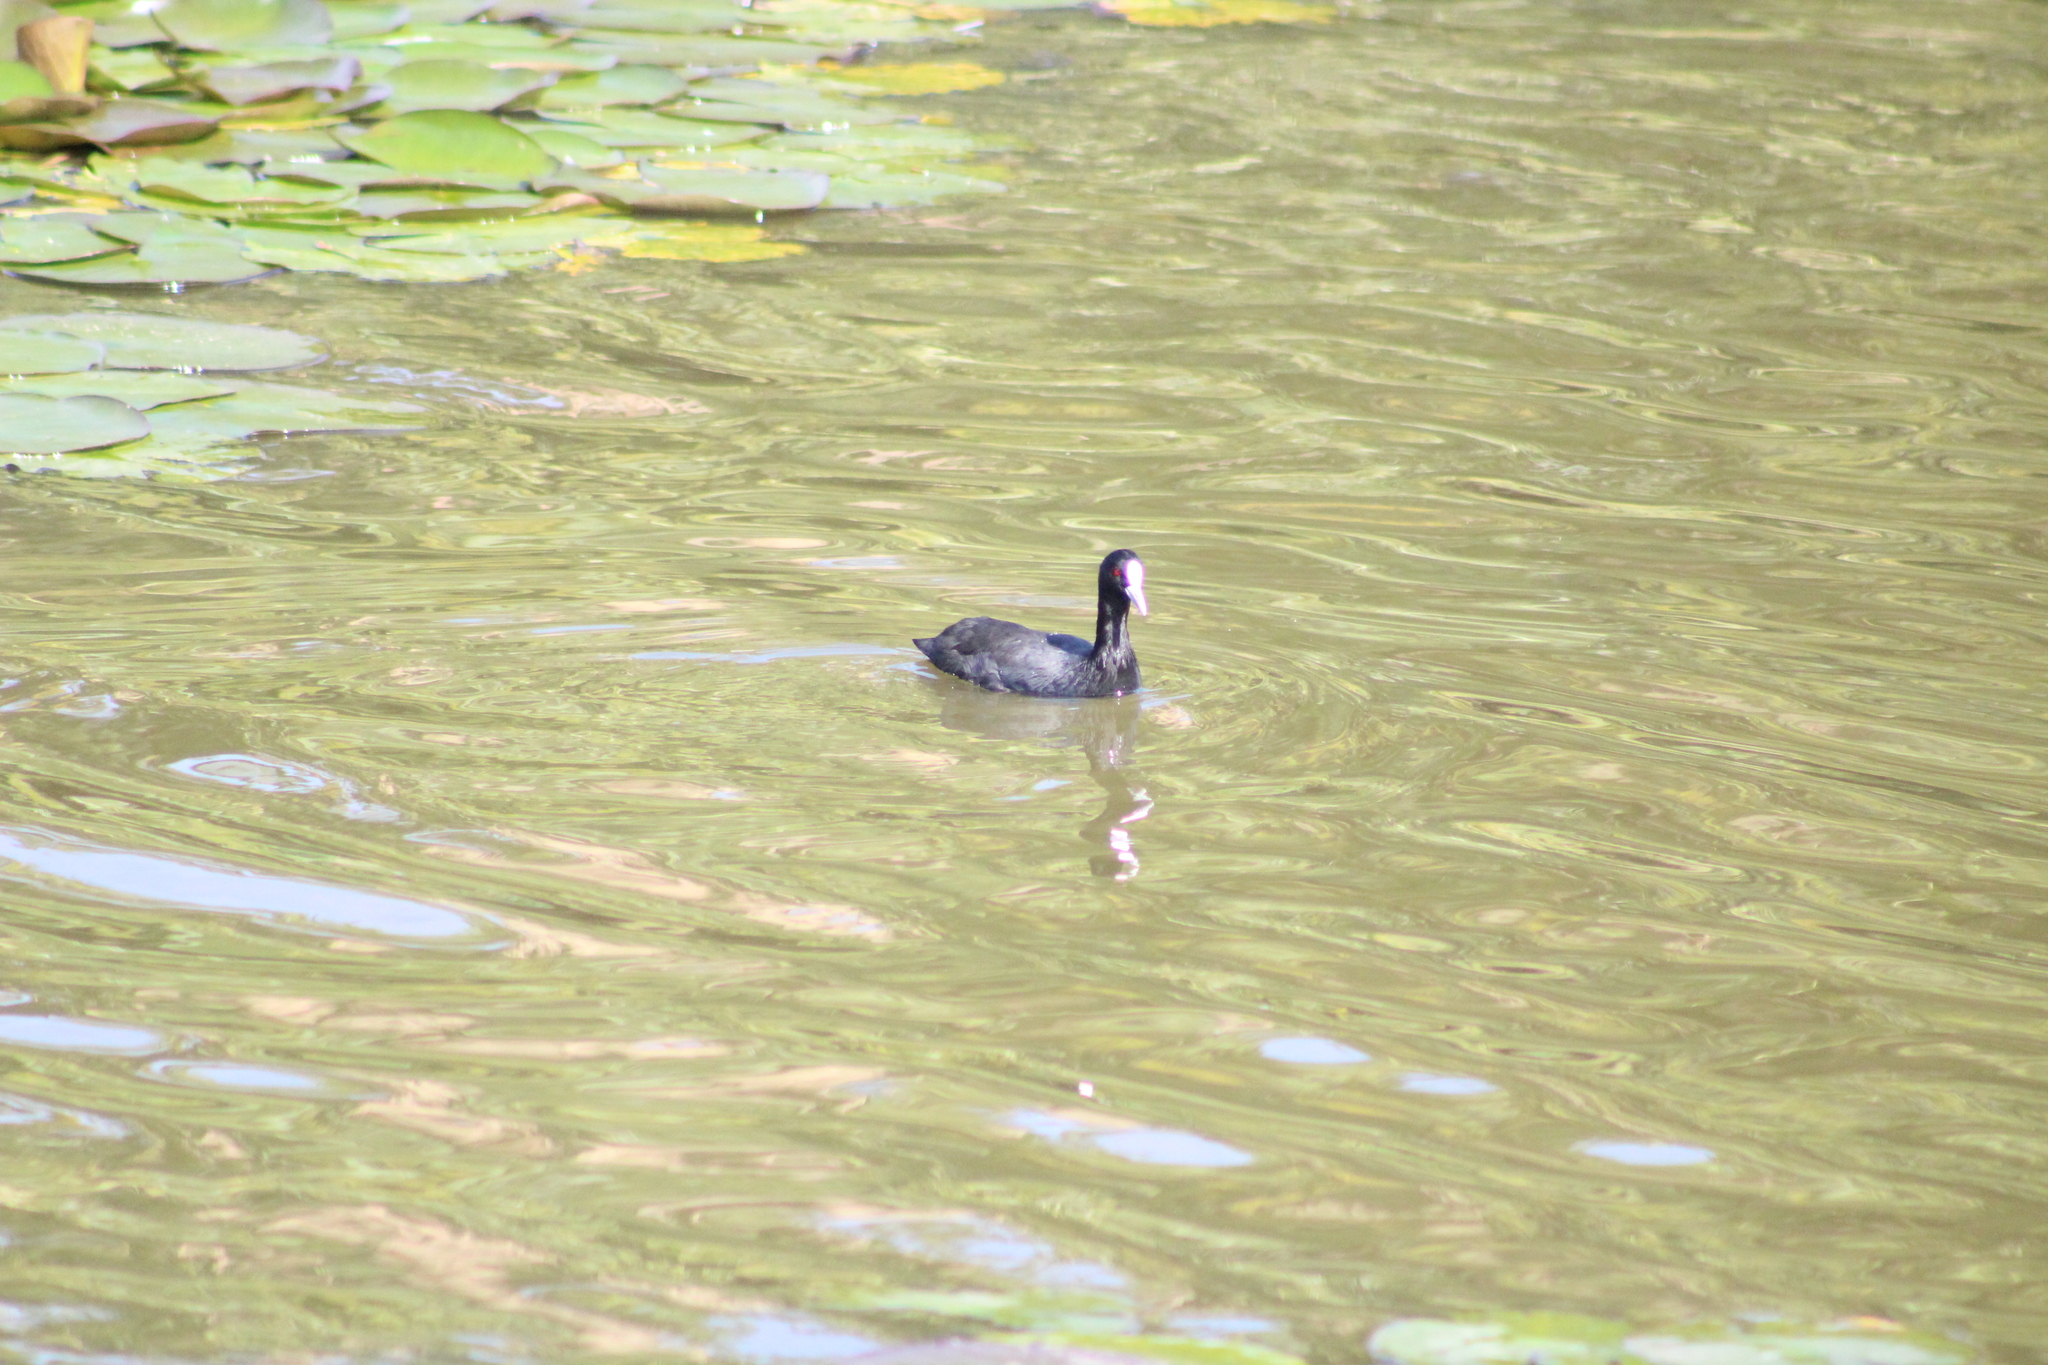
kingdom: Animalia
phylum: Chordata
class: Aves
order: Gruiformes
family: Rallidae
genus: Fulica
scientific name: Fulica atra
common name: Eurasian coot
